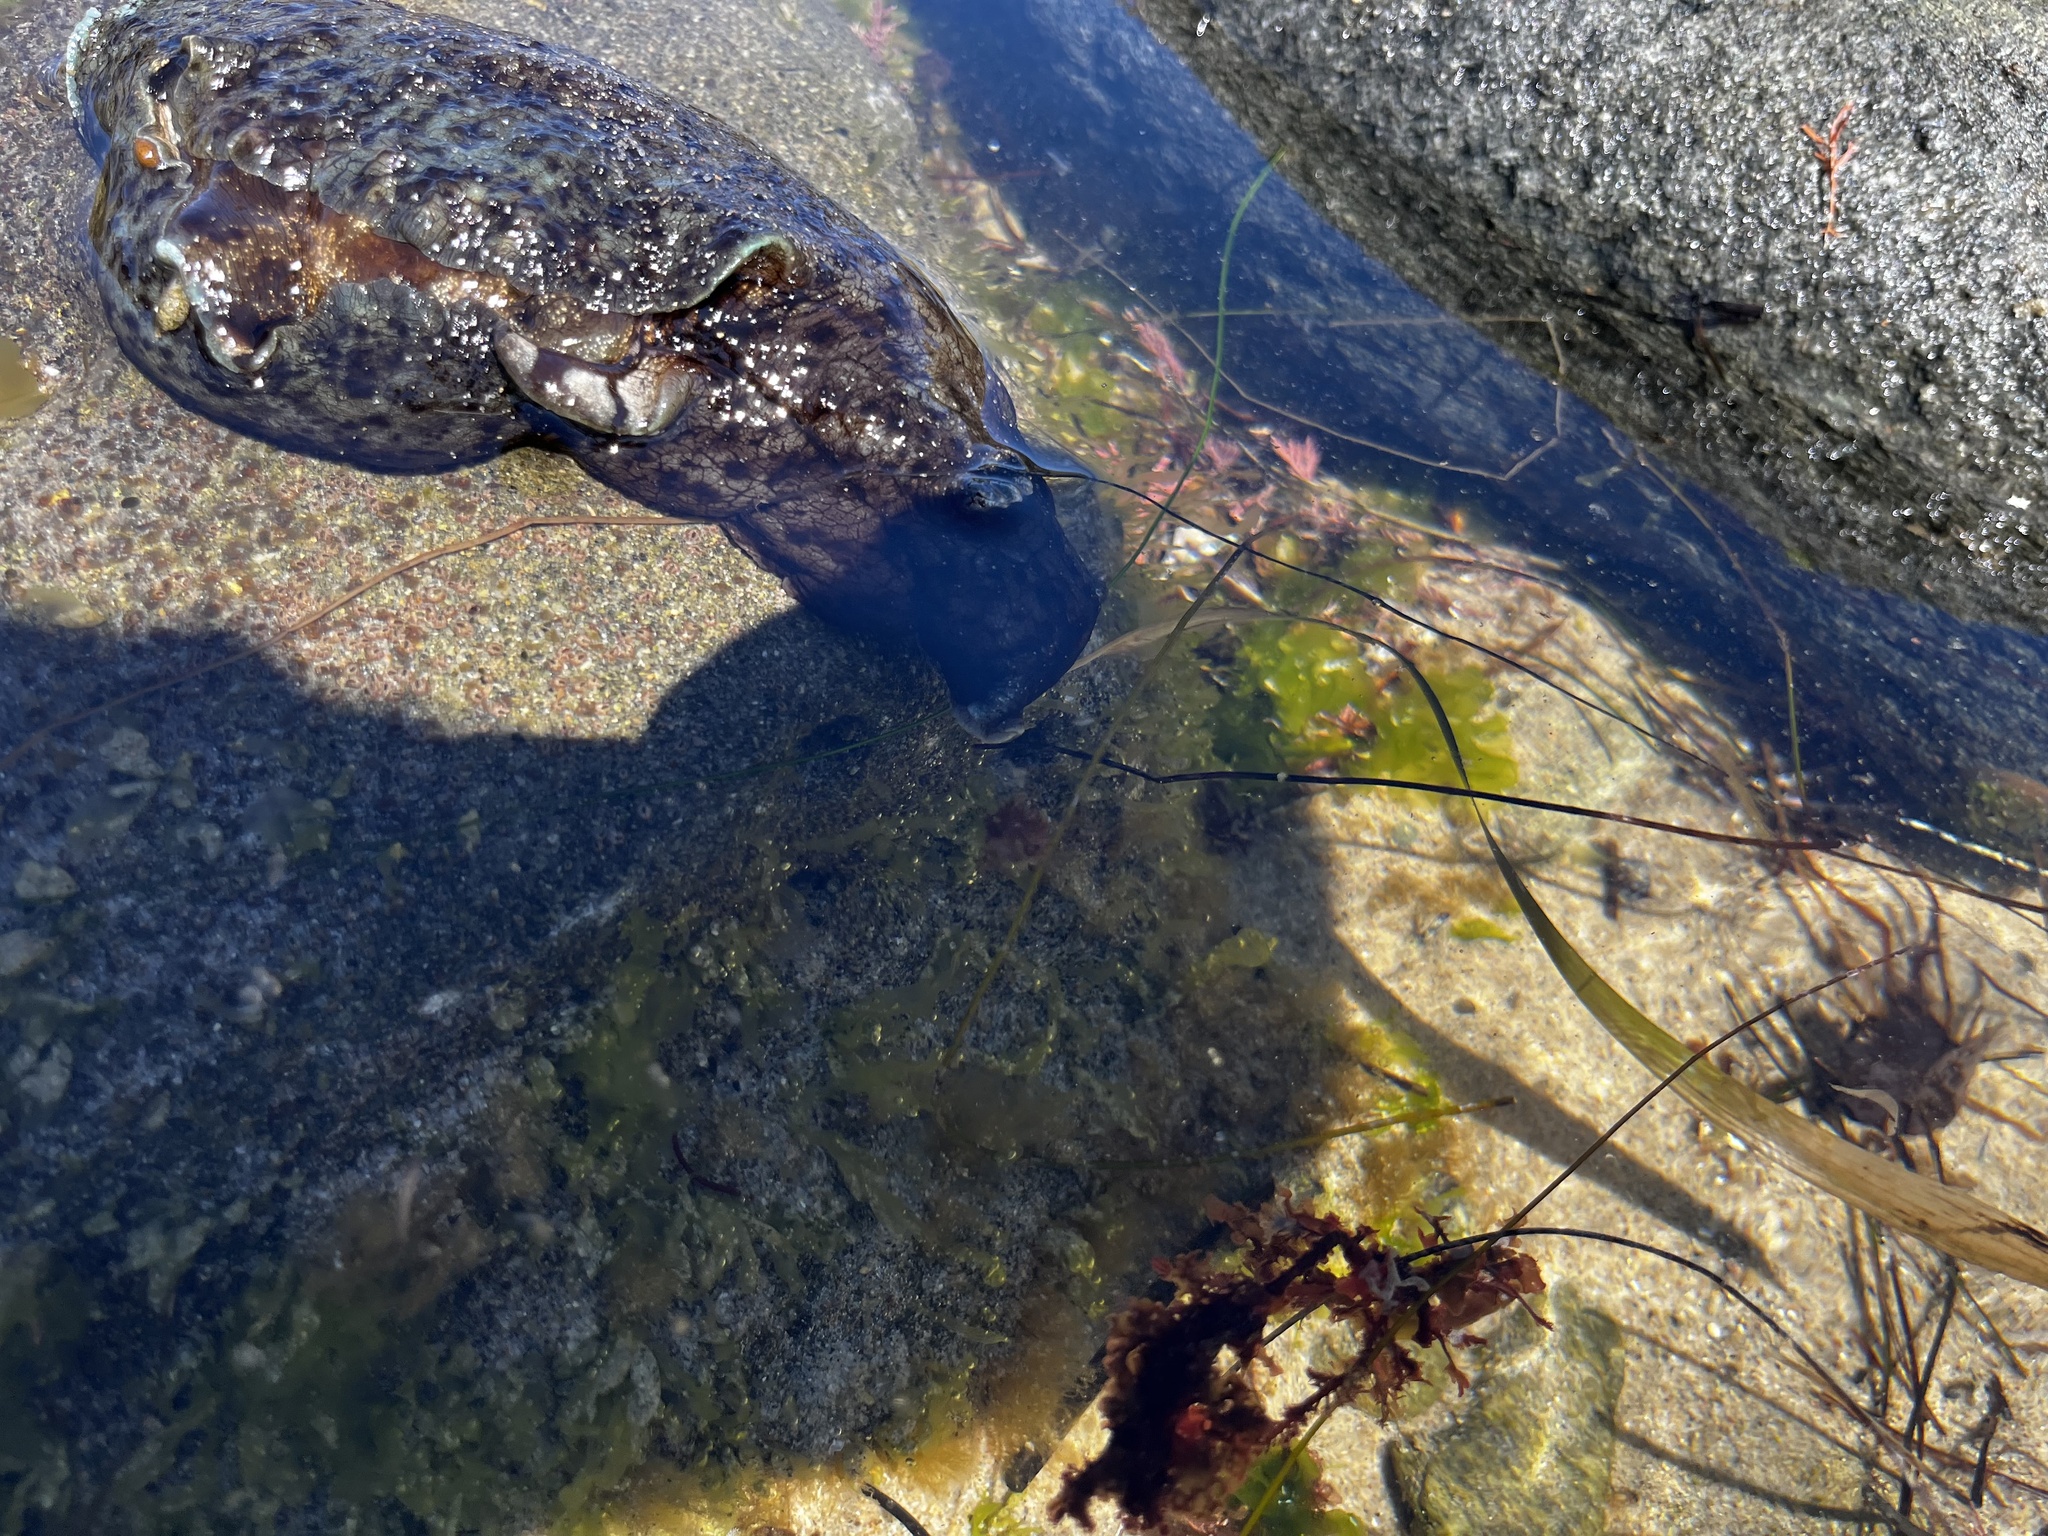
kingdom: Animalia
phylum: Mollusca
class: Gastropoda
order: Aplysiida
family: Aplysiidae
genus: Aplysia
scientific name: Aplysia californica
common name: California seahare
